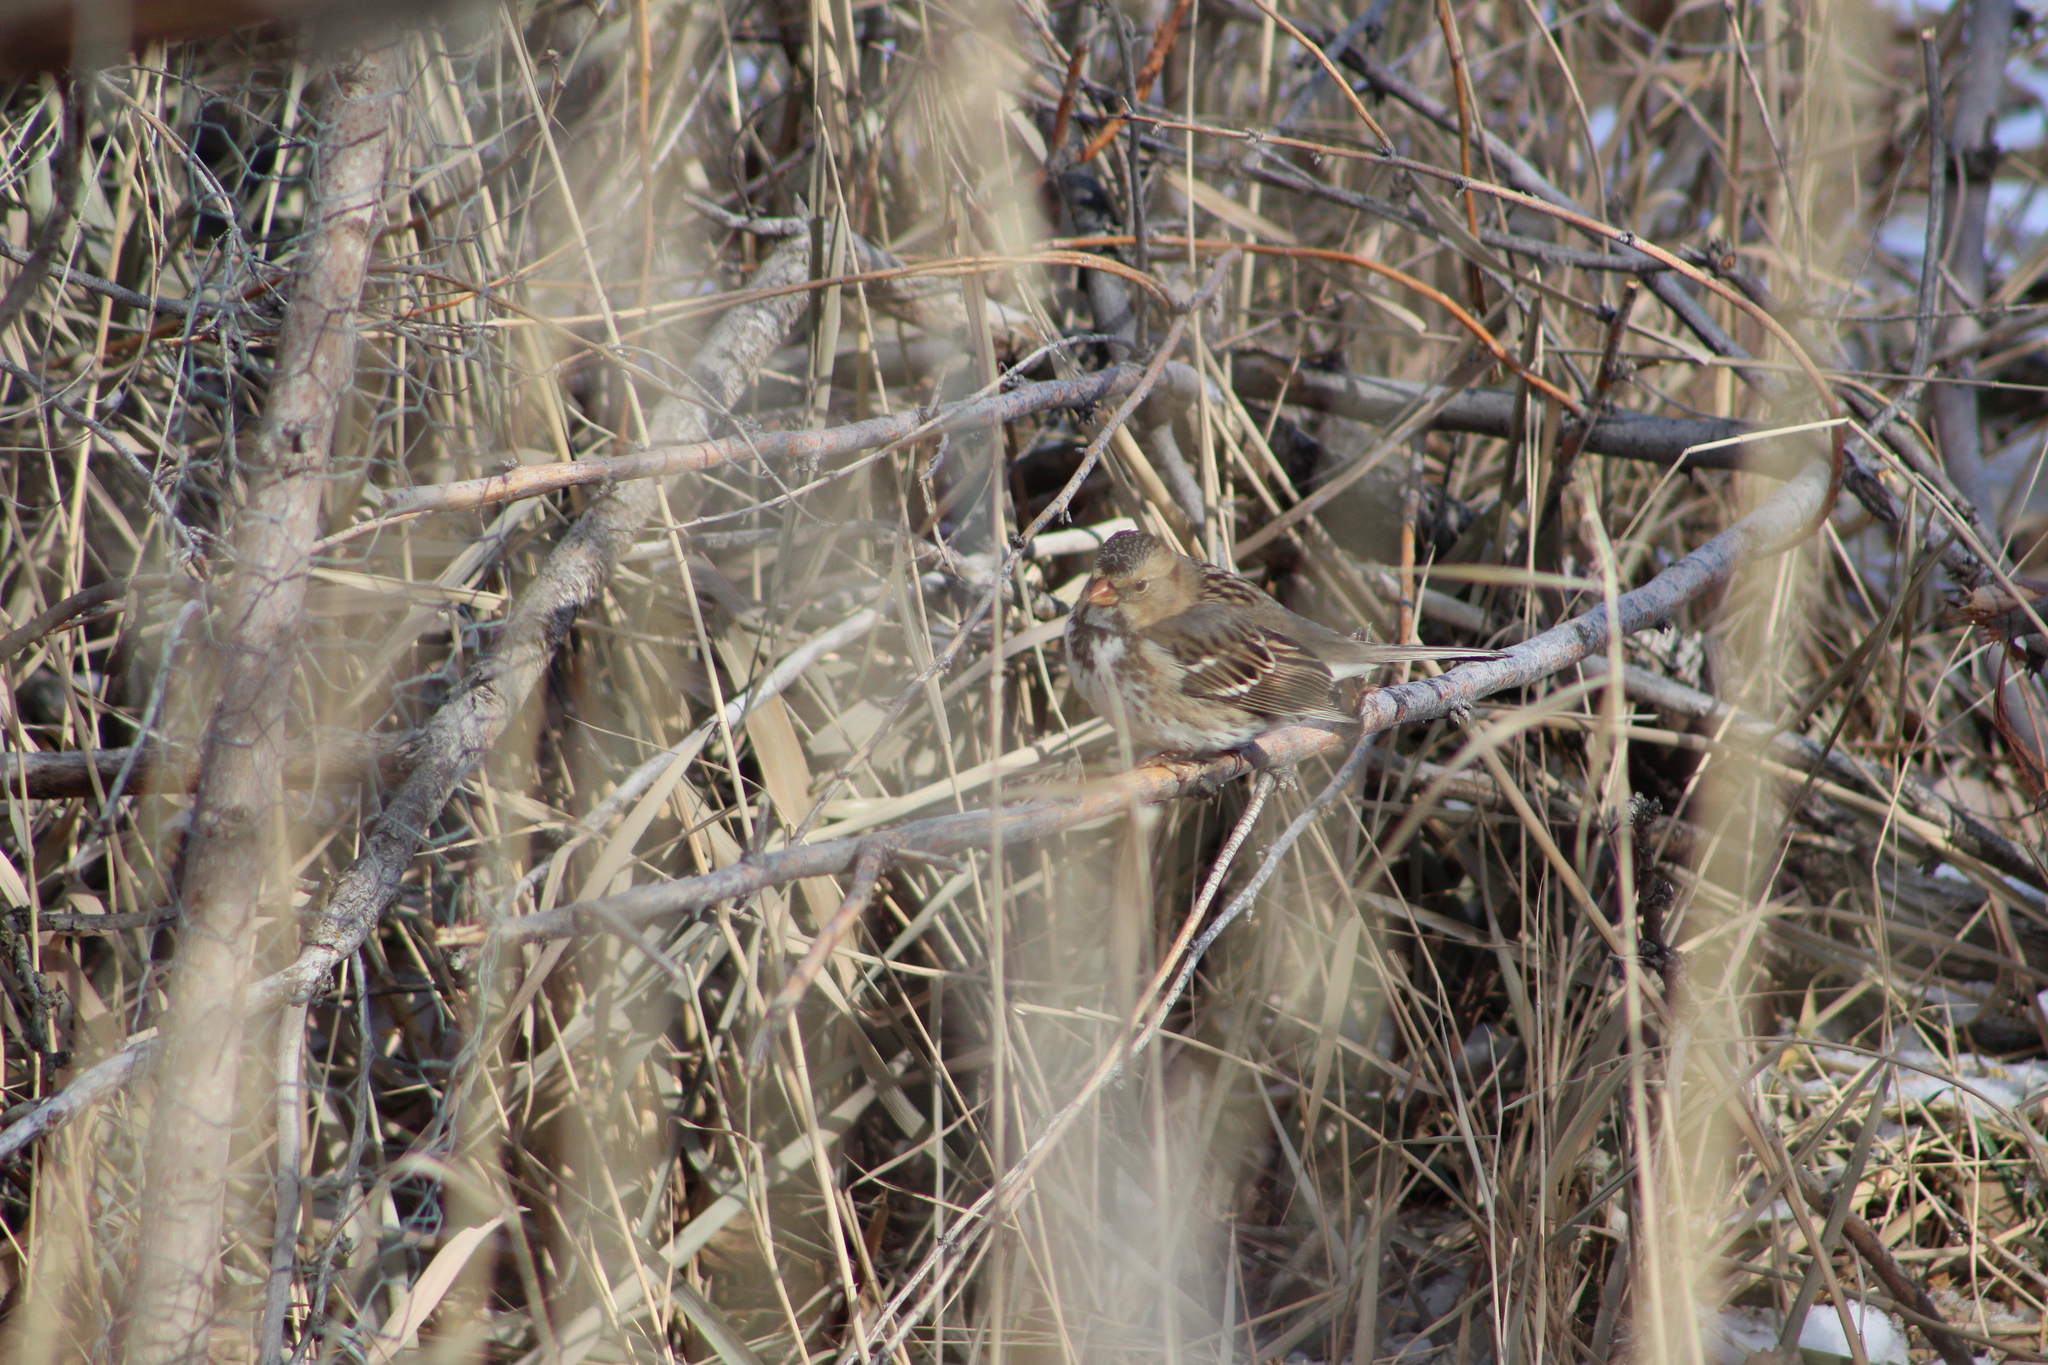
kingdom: Animalia
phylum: Chordata
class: Aves
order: Passeriformes
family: Passerellidae
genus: Zonotrichia
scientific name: Zonotrichia querula
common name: Harris's sparrow
